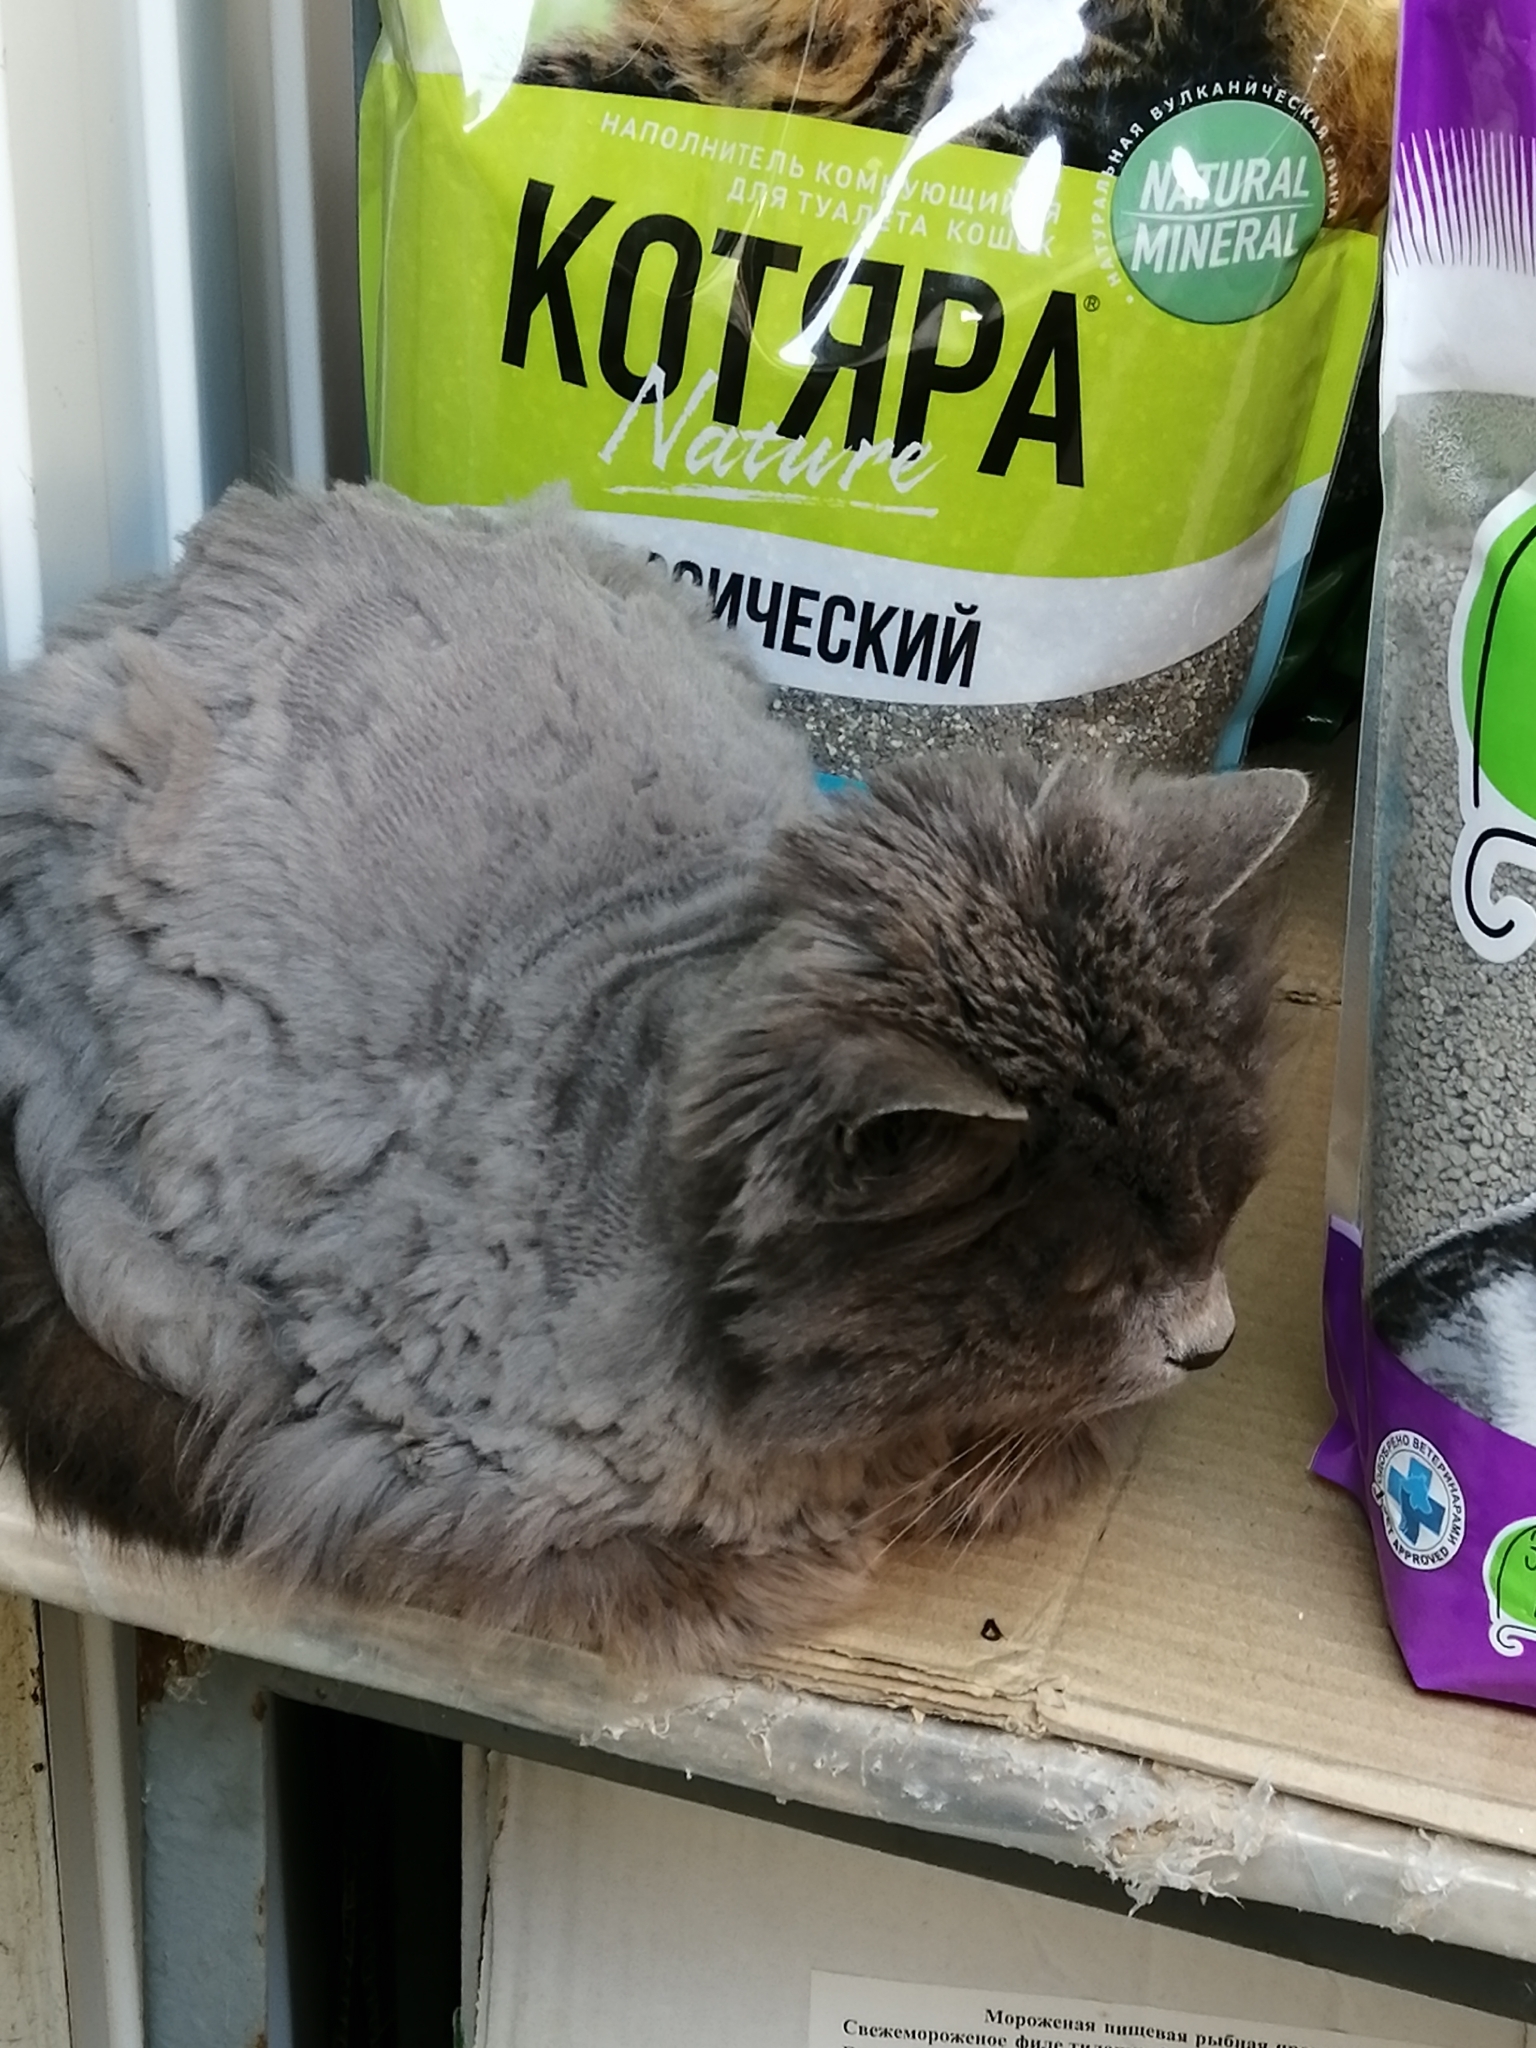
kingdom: Animalia
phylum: Chordata
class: Mammalia
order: Carnivora
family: Felidae
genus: Felis
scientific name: Felis catus
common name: Domestic cat
